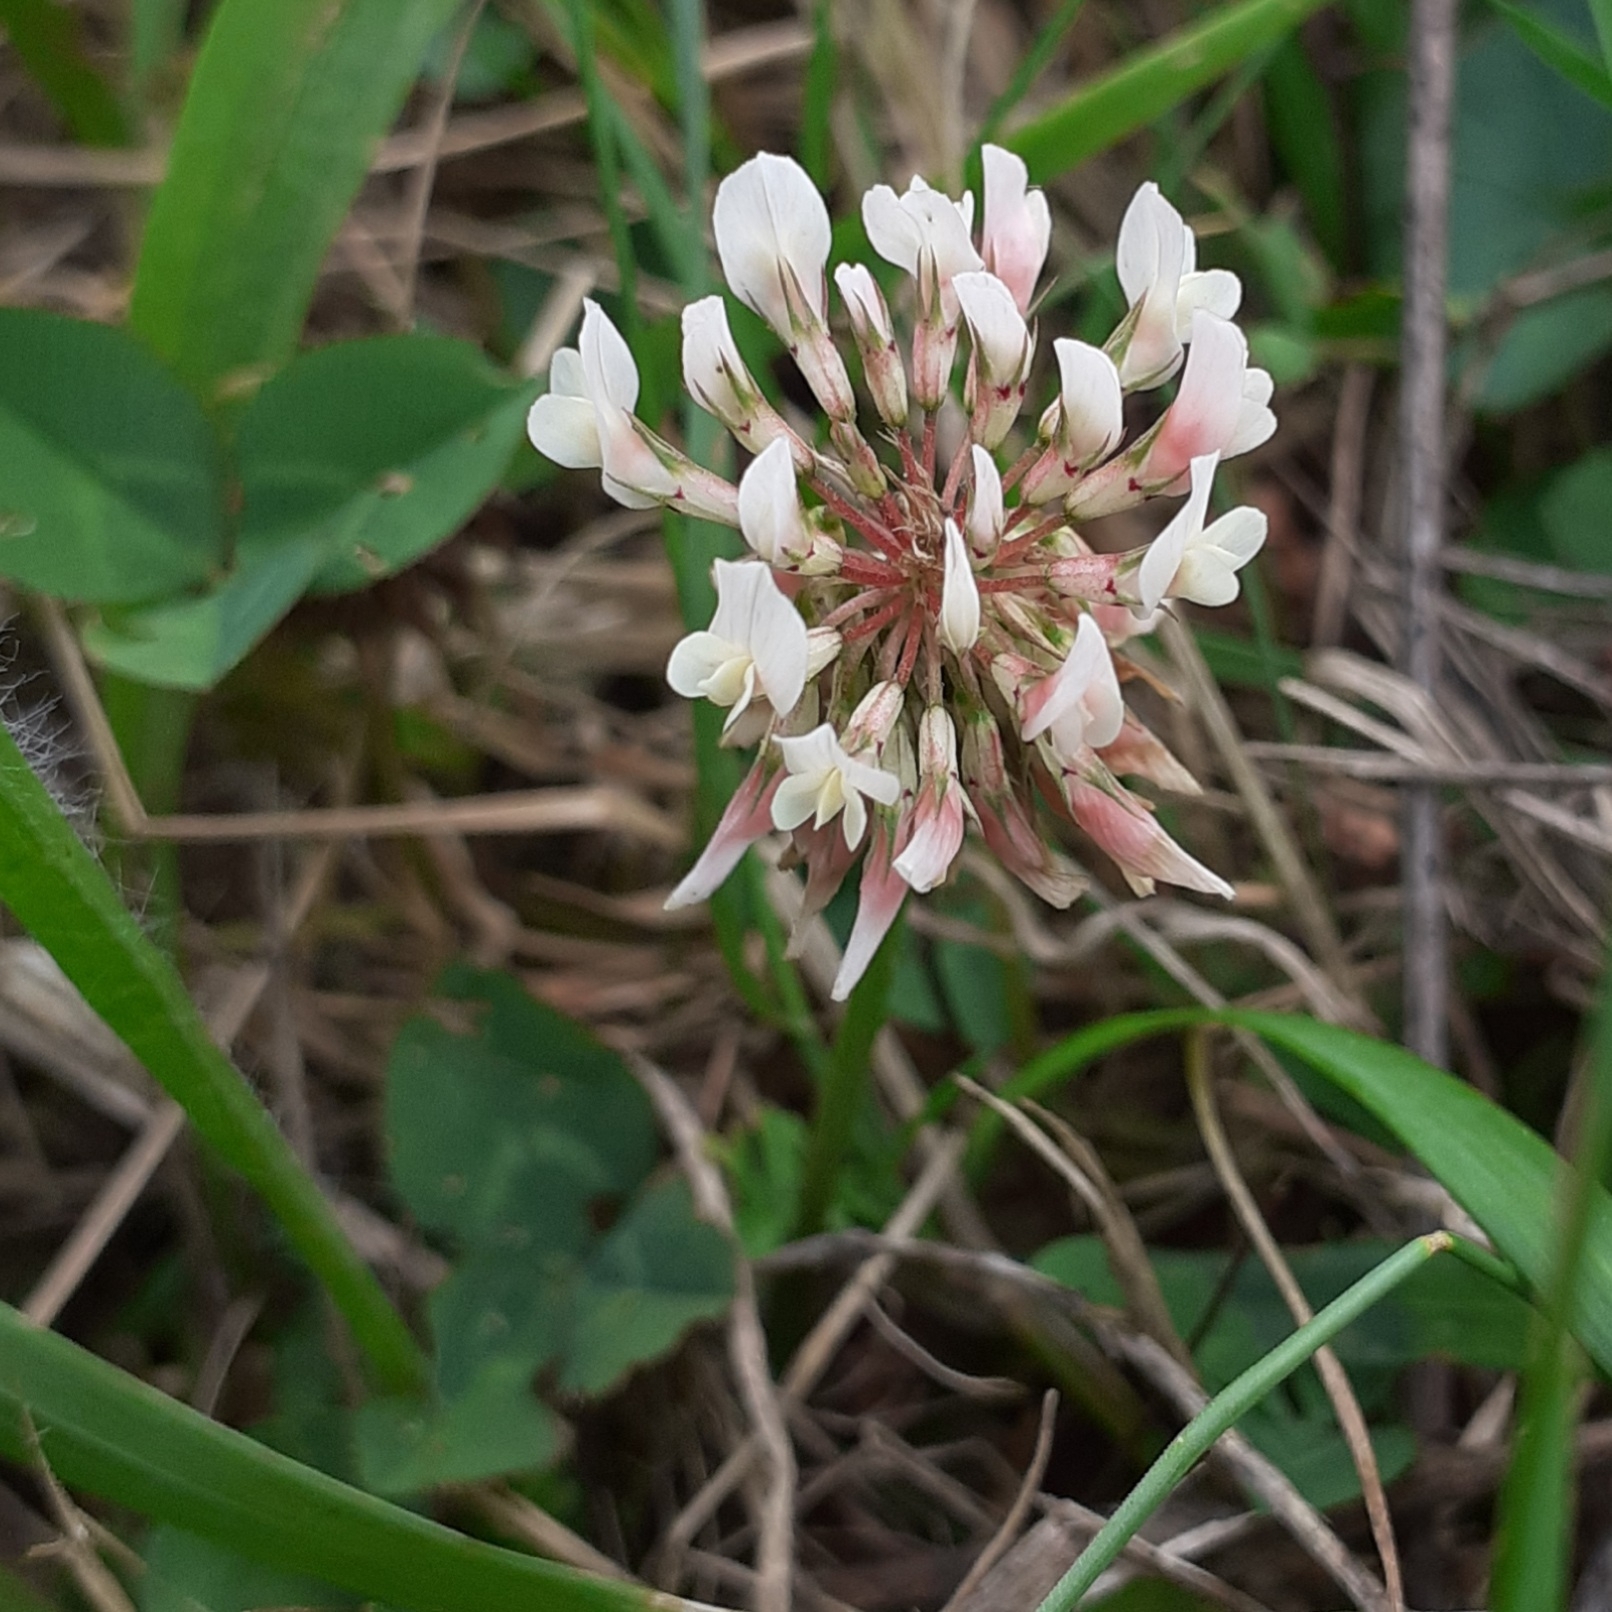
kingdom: Plantae
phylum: Tracheophyta
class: Magnoliopsida
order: Fabales
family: Fabaceae
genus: Trifolium
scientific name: Trifolium repens
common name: White clover
